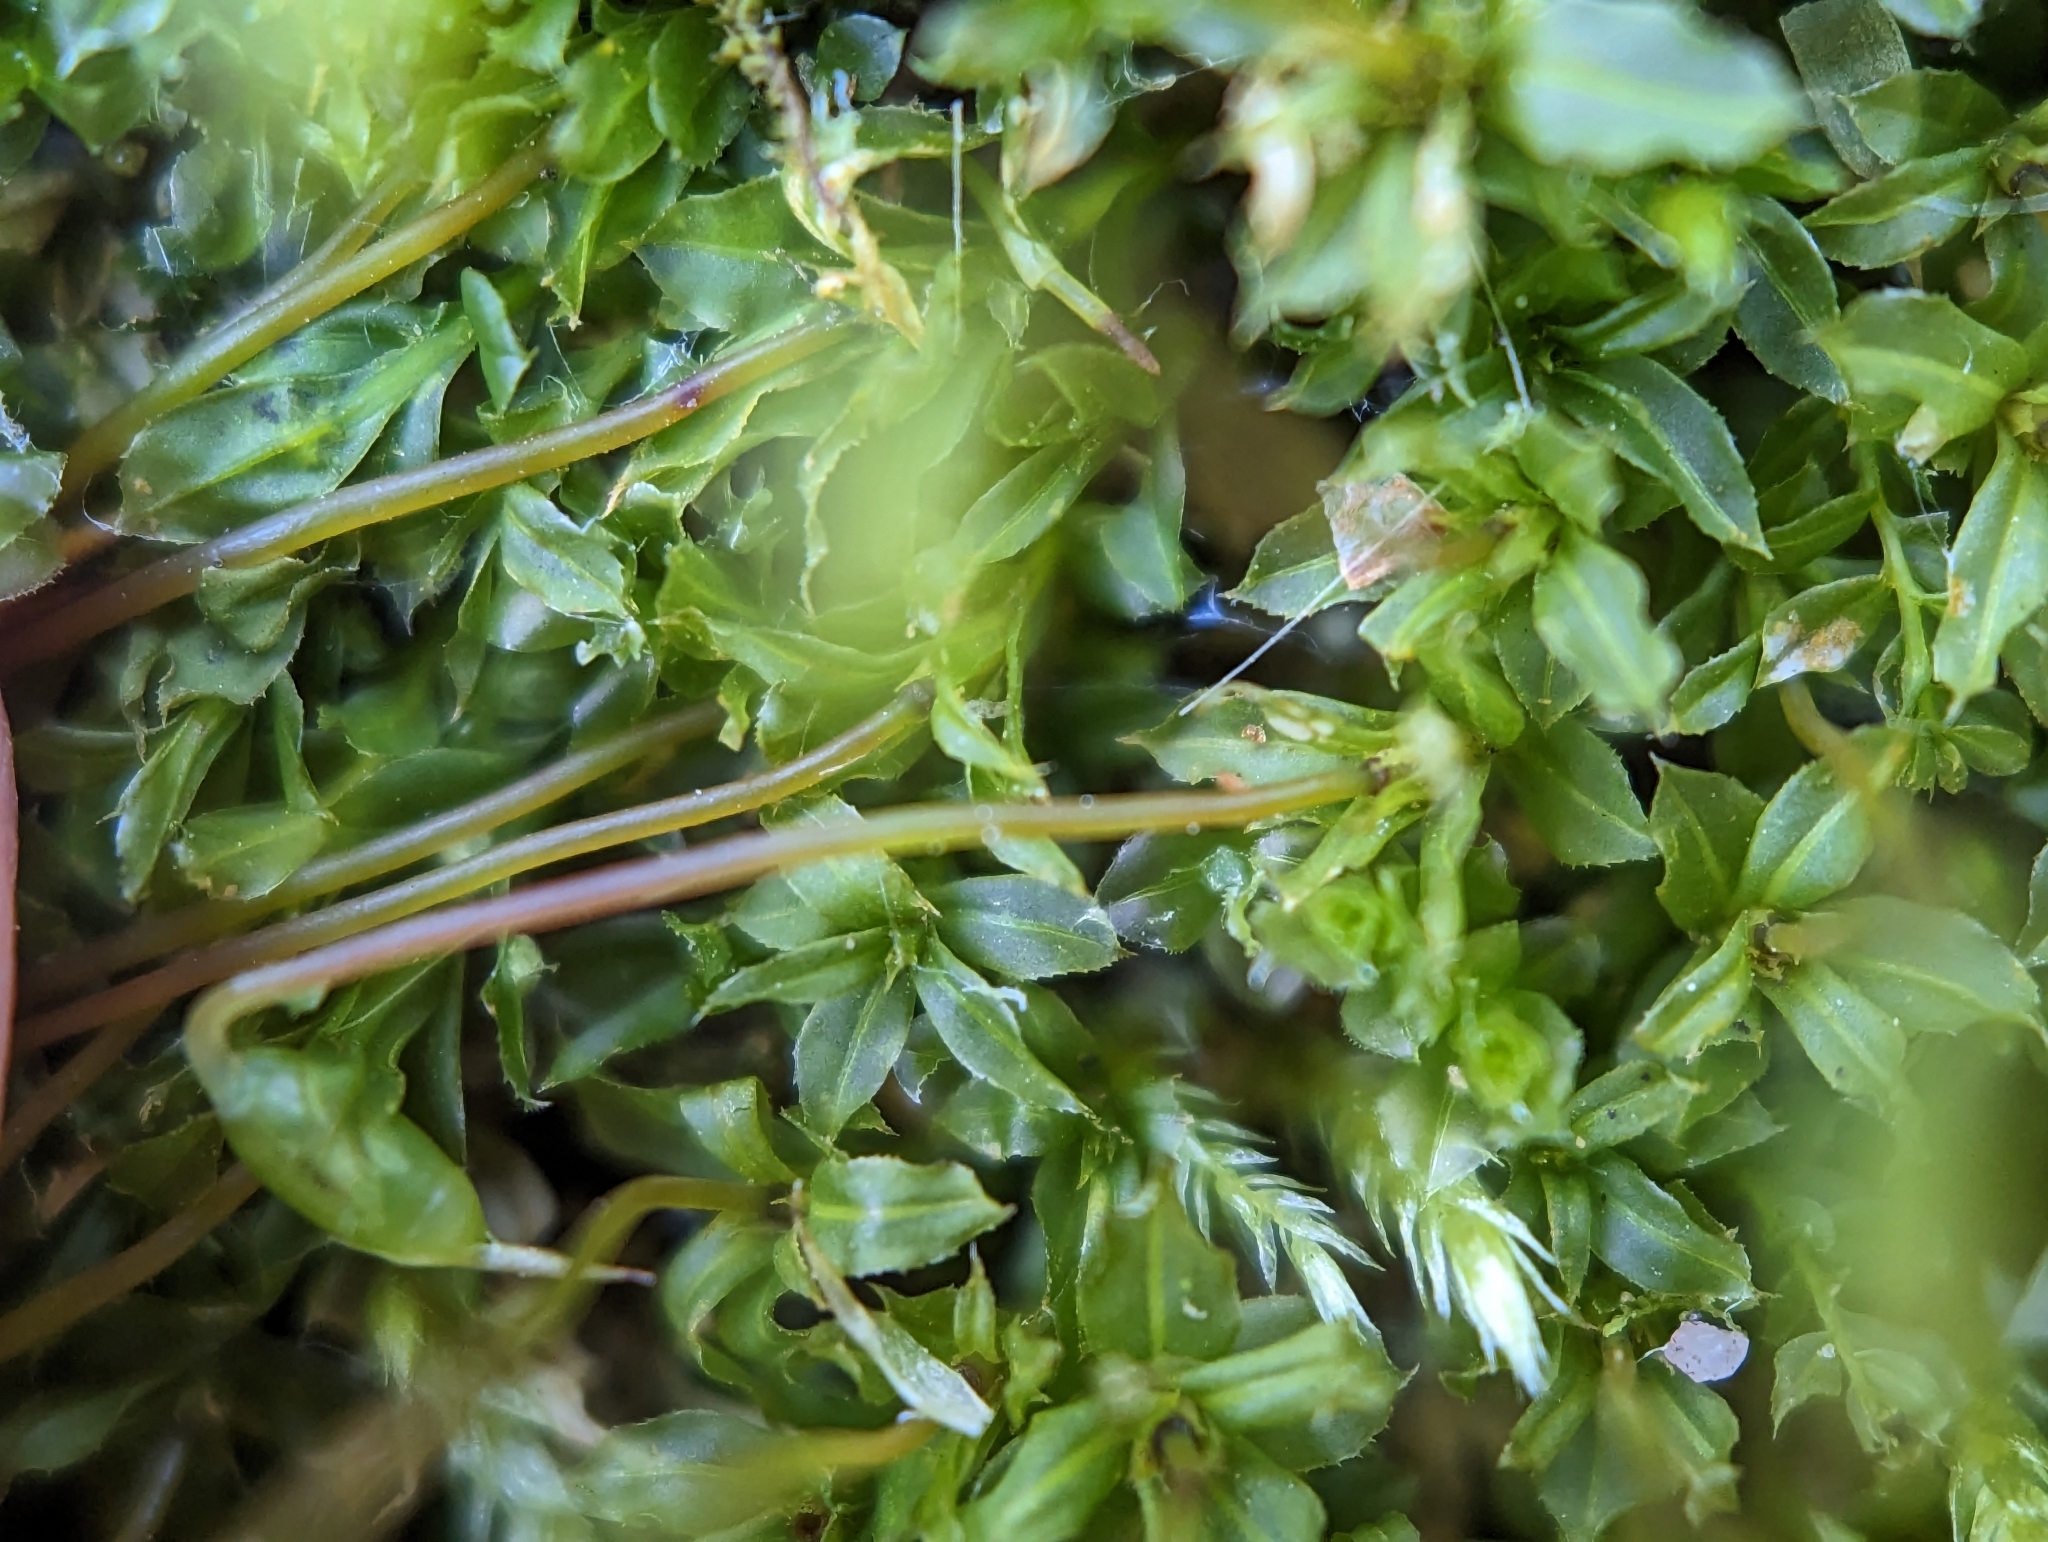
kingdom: Plantae
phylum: Bryophyta
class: Bryopsida
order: Bryales
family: Mniaceae
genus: Plagiomnium
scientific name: Plagiomnium cuspidatum
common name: Woodsy leafy moss
